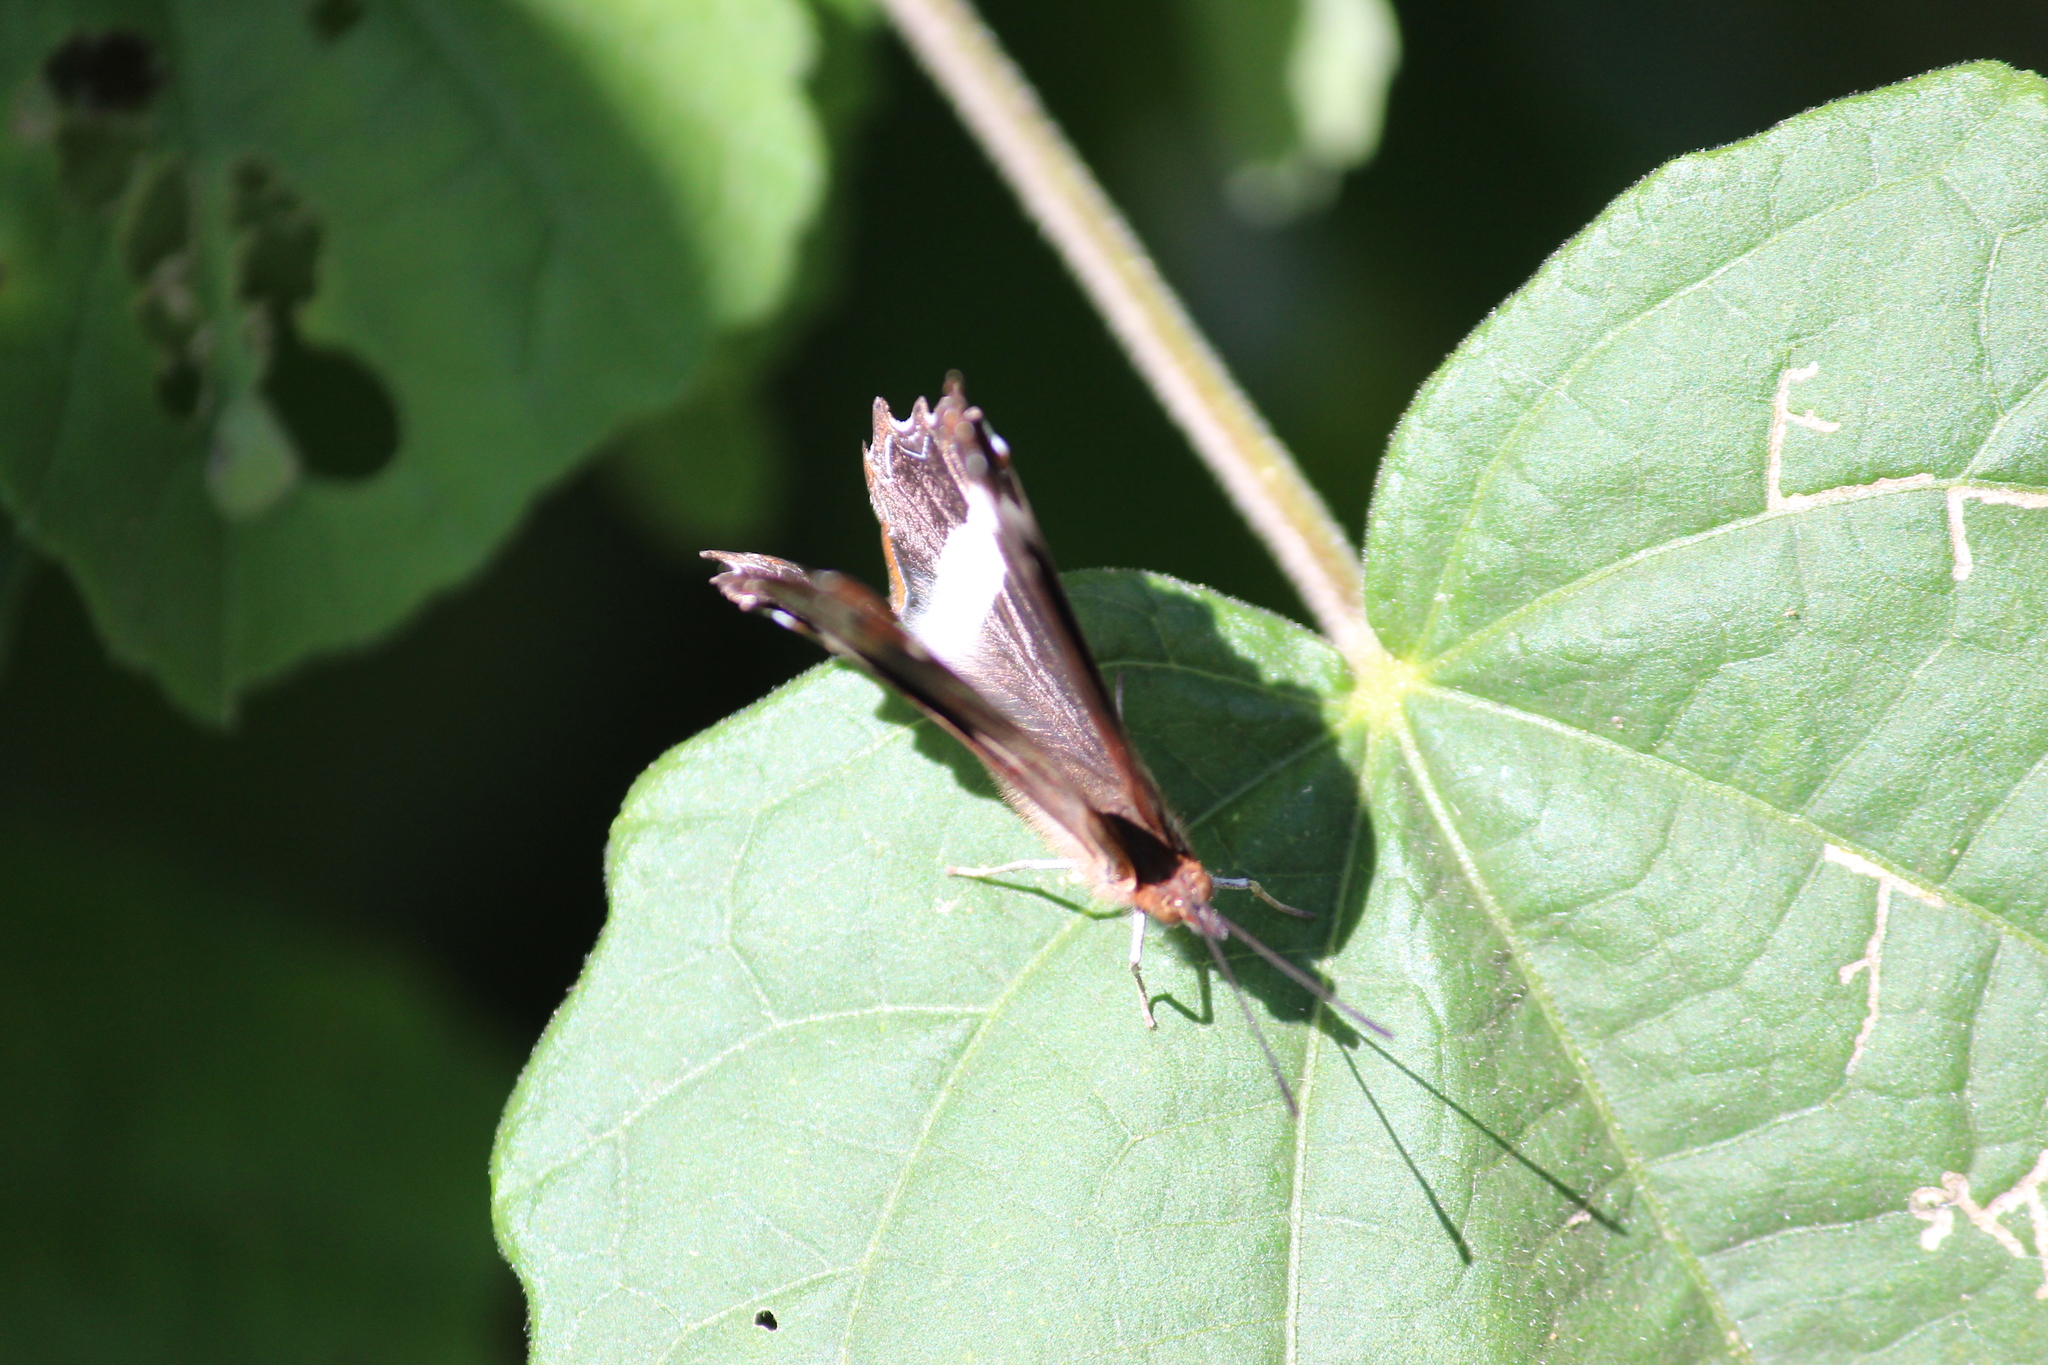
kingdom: Animalia
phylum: Arthropoda
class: Insecta
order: Lepidoptera
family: Nymphalidae
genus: Eurytela
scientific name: Eurytela hiarbas
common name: Pied piper
